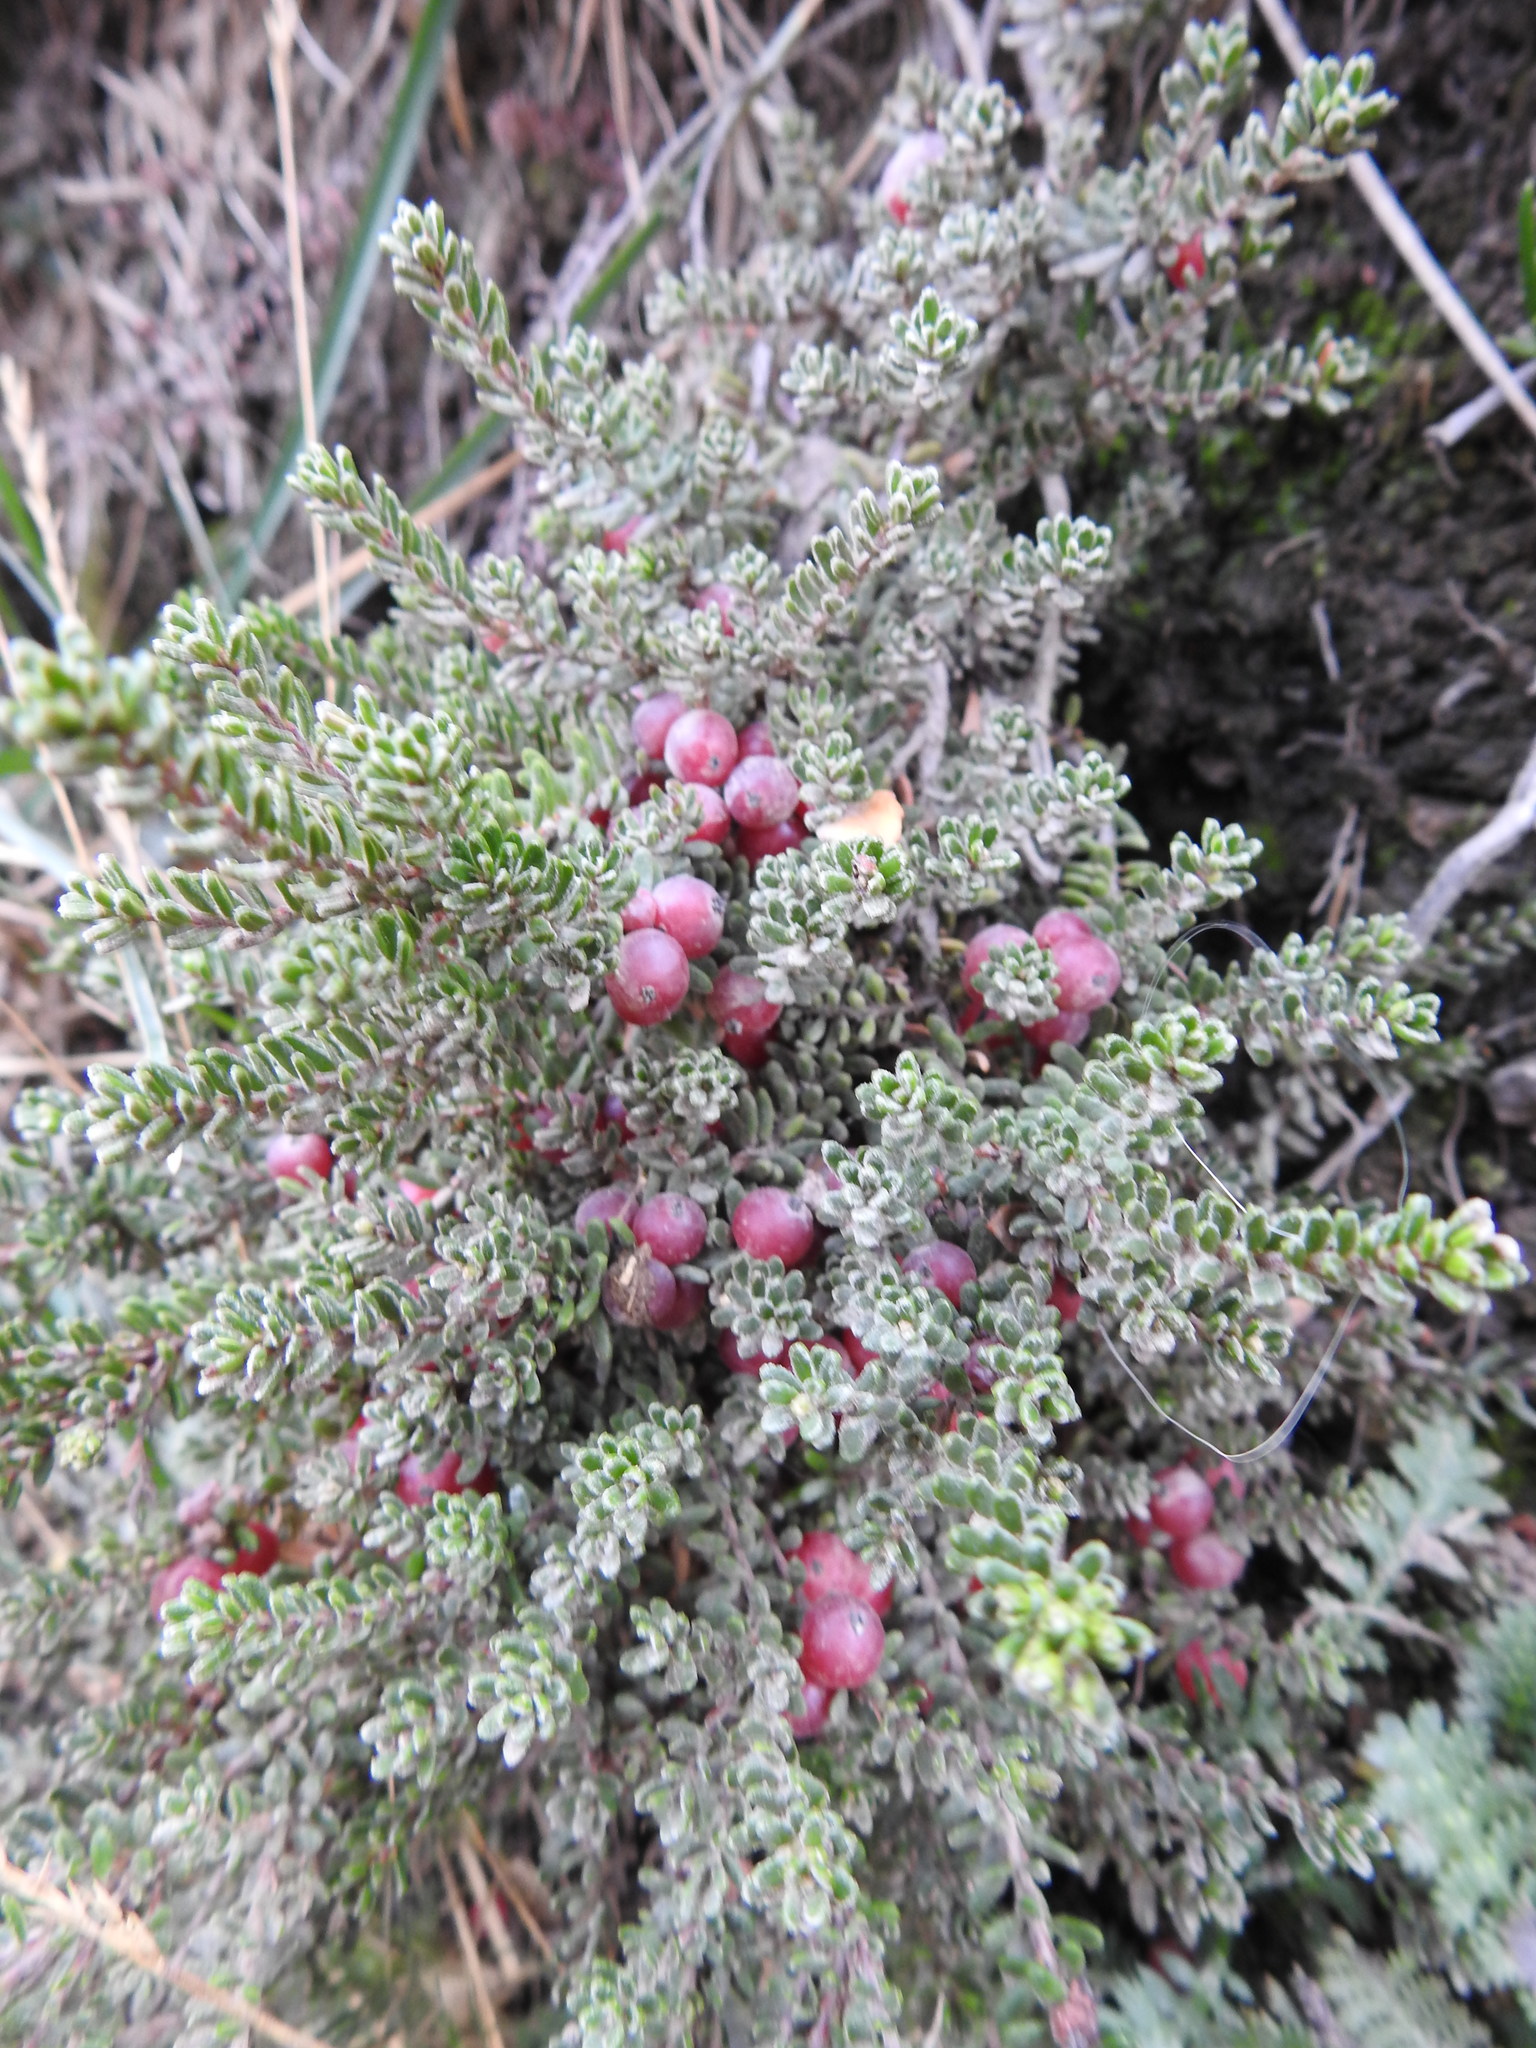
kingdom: Plantae
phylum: Tracheophyta
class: Magnoliopsida
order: Ericales
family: Ericaceae
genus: Empetrum
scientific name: Empetrum rubrum
